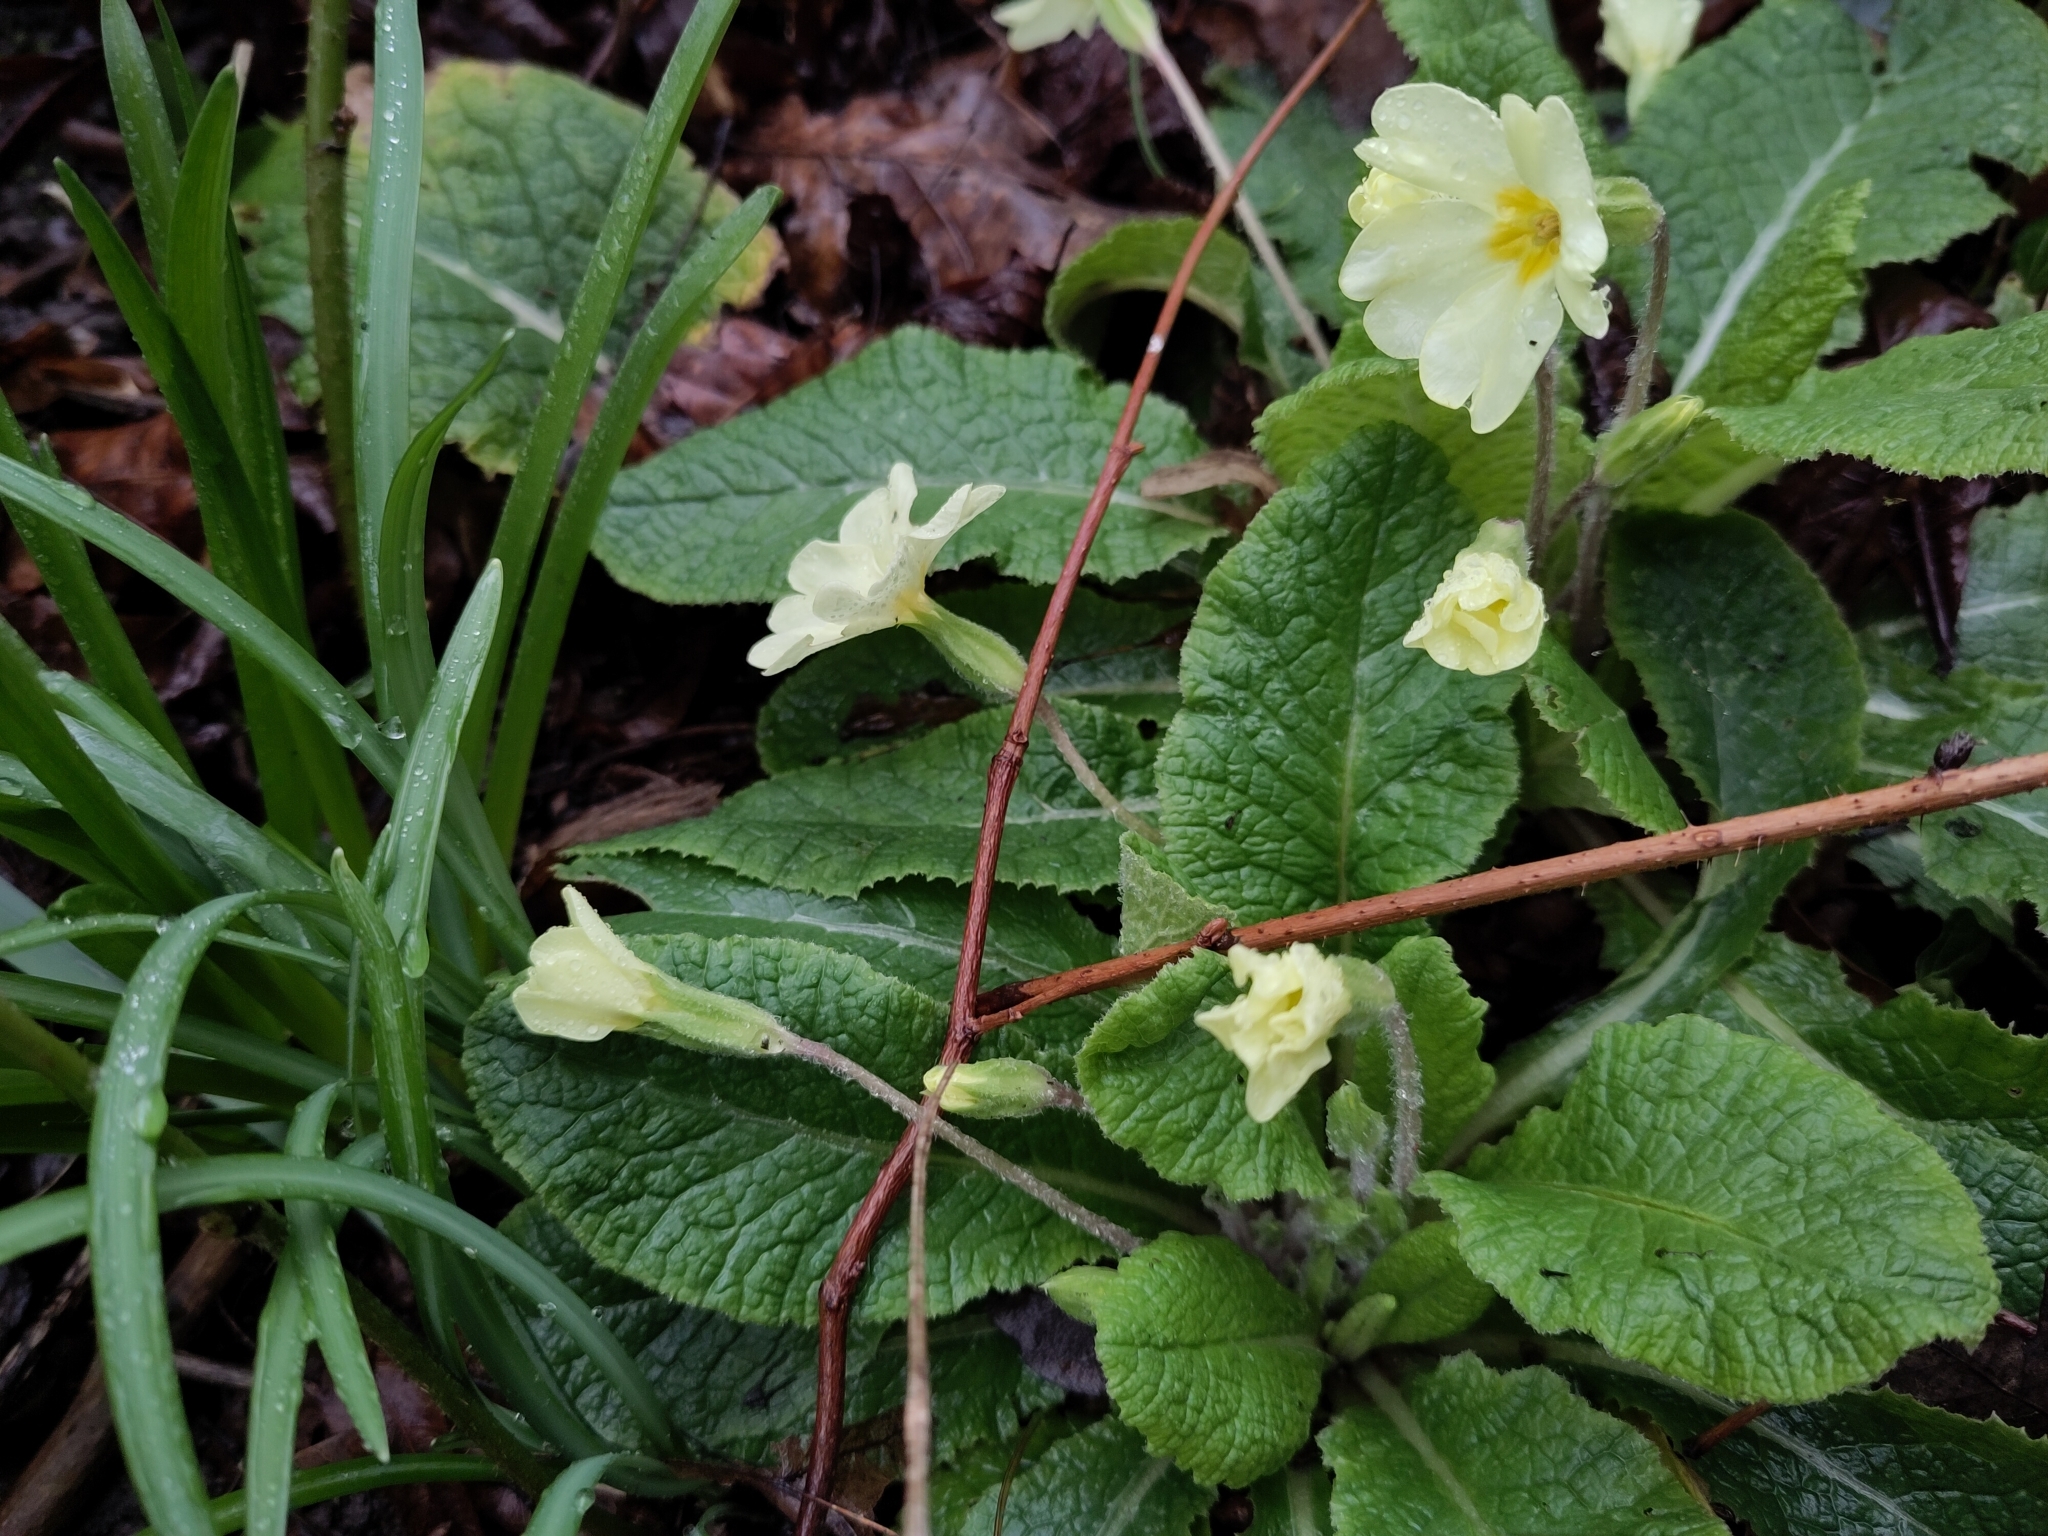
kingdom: Plantae
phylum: Tracheophyta
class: Magnoliopsida
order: Ericales
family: Primulaceae
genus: Primula
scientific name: Primula vulgaris
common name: Primrose
